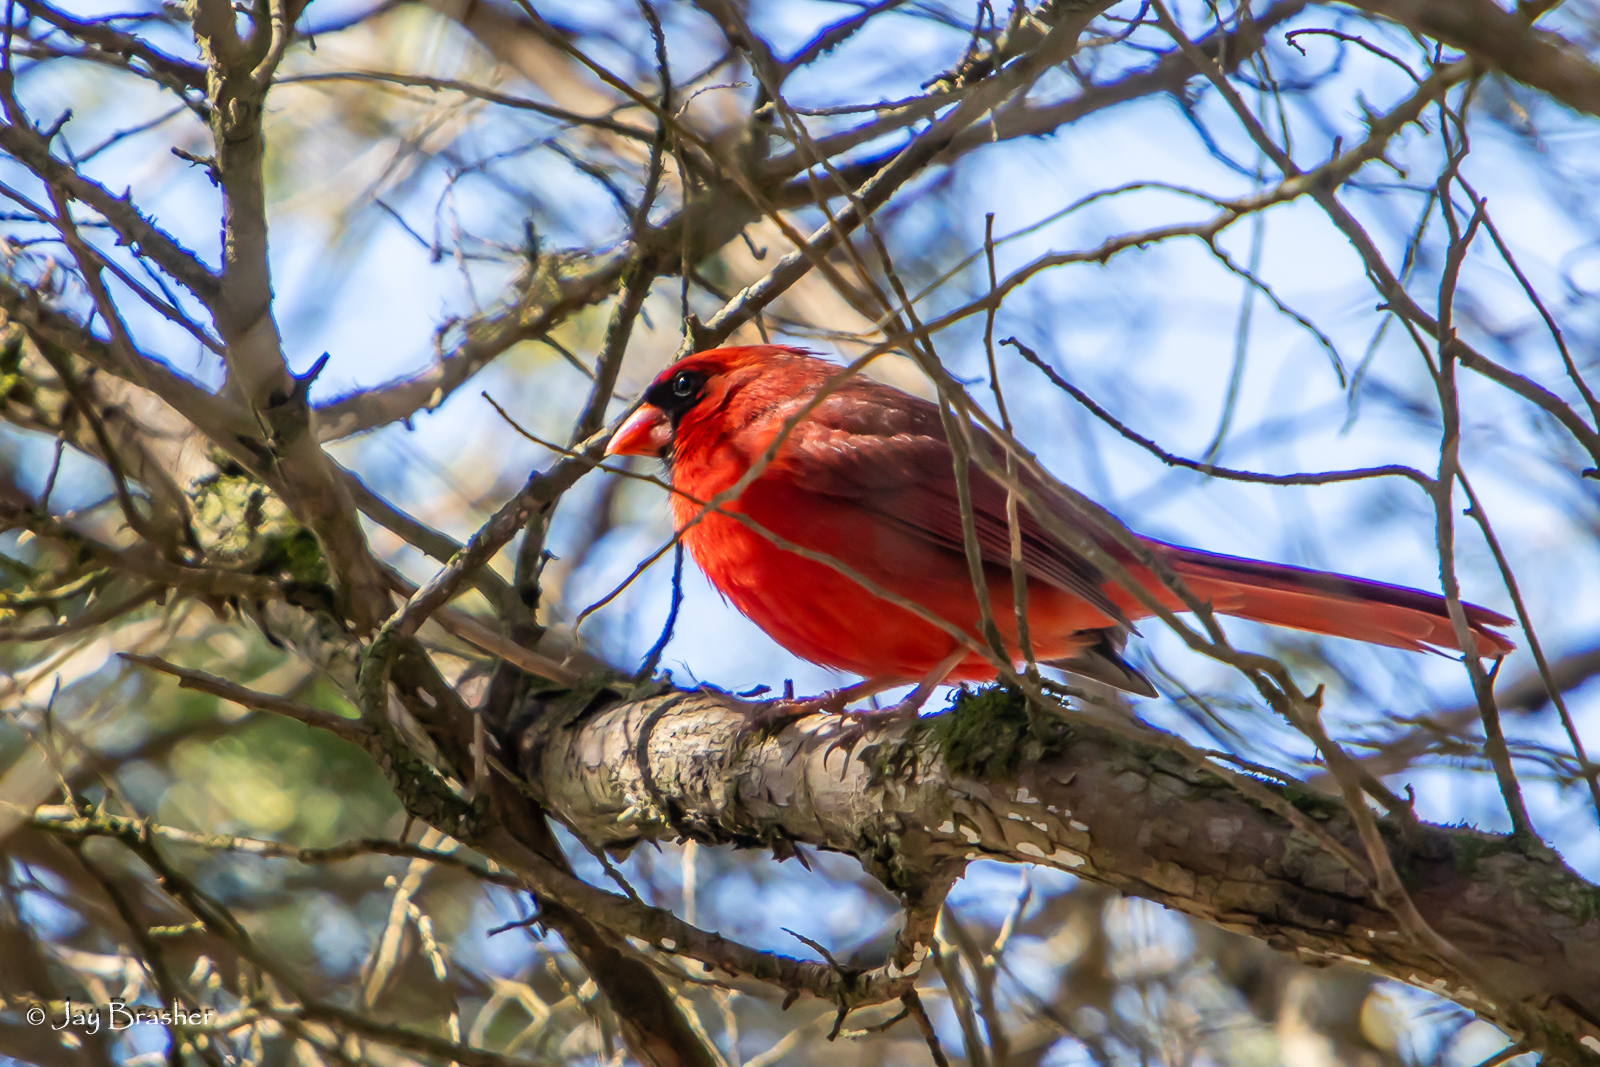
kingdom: Animalia
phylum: Chordata
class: Aves
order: Passeriformes
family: Cardinalidae
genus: Cardinalis
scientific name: Cardinalis cardinalis
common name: Northern cardinal
